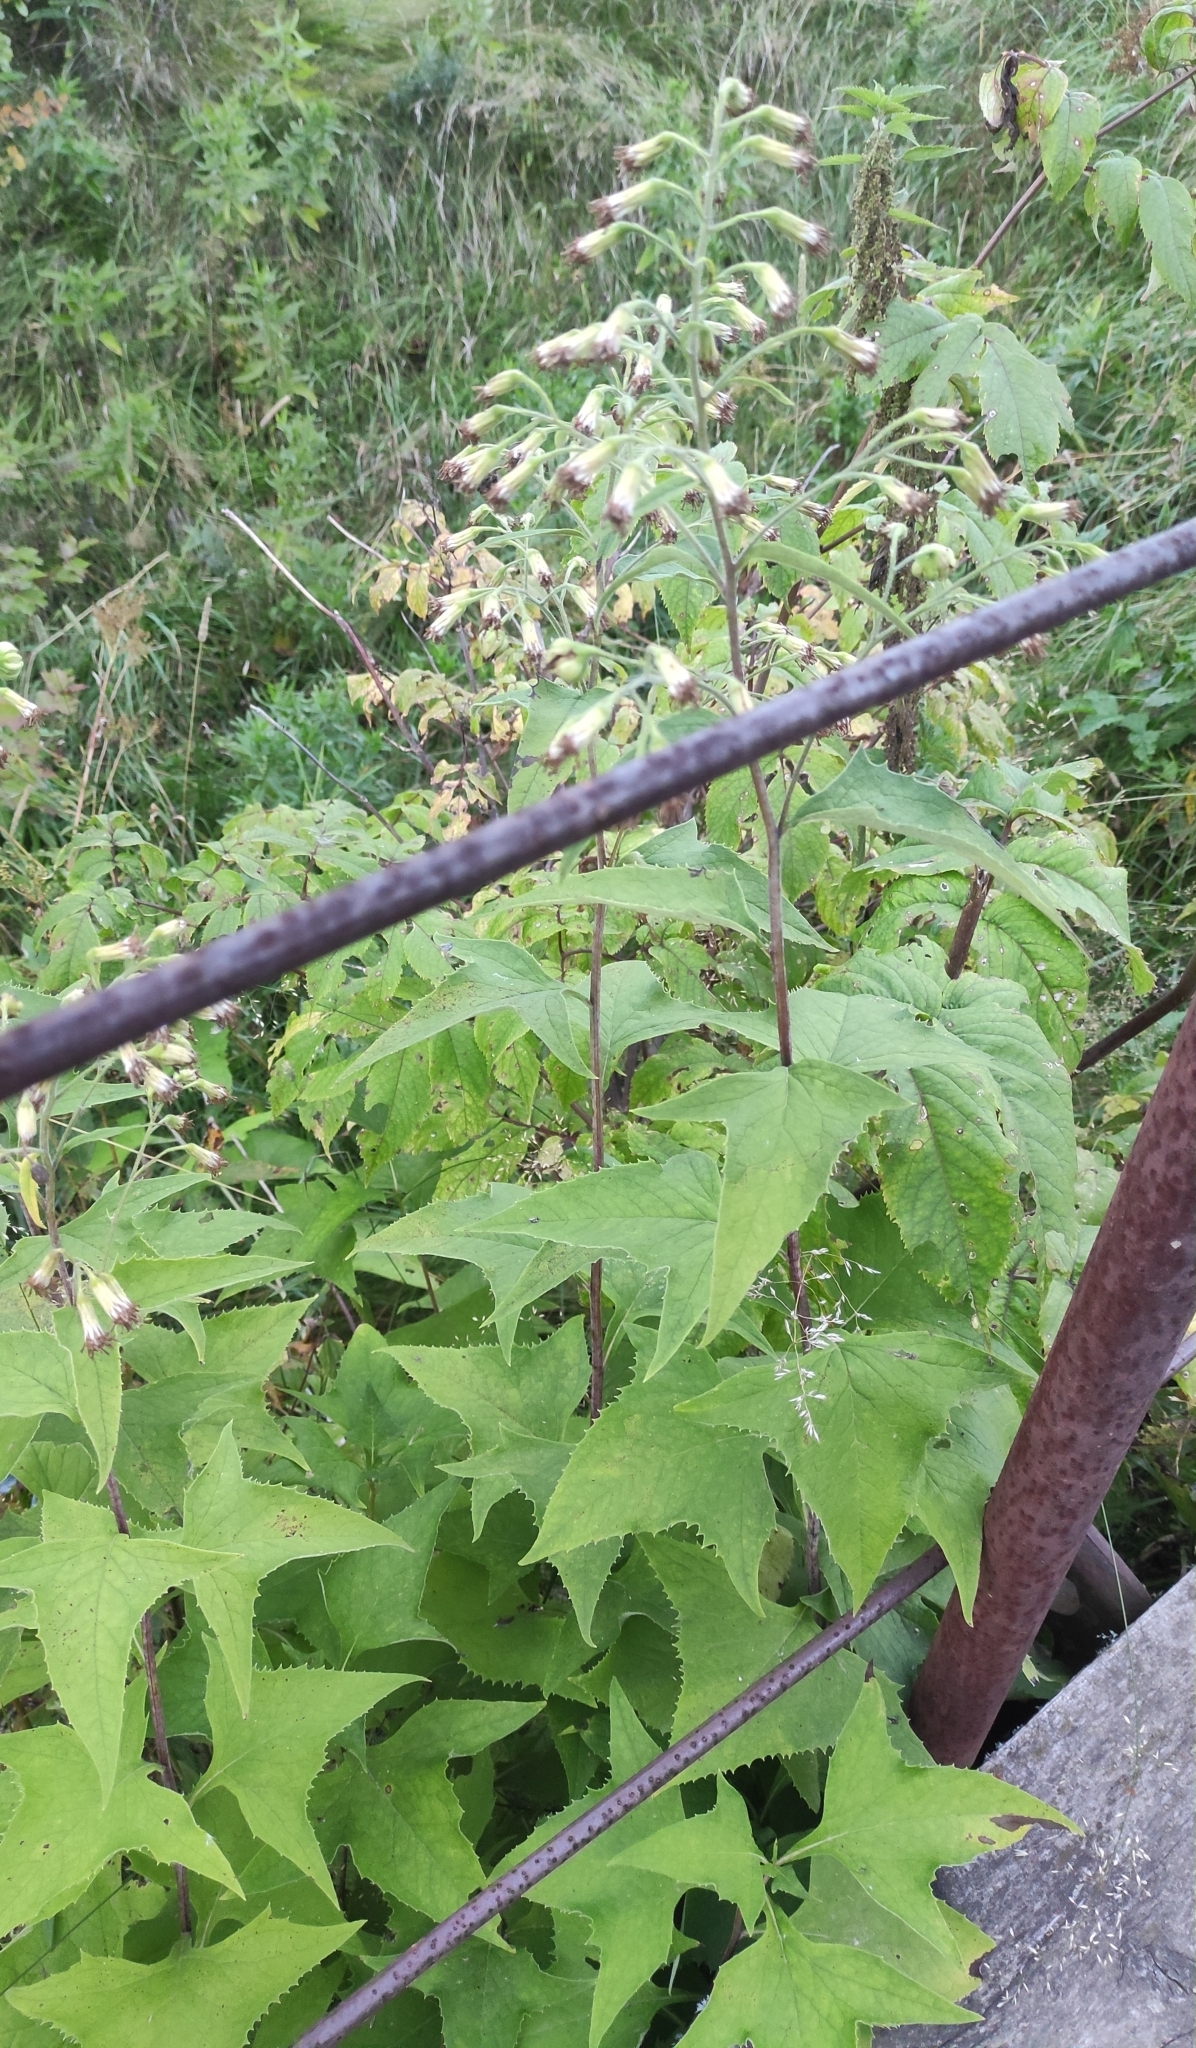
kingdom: Plantae
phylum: Tracheophyta
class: Magnoliopsida
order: Asterales
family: Asteraceae
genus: Parasenecio
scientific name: Parasenecio hastatus
